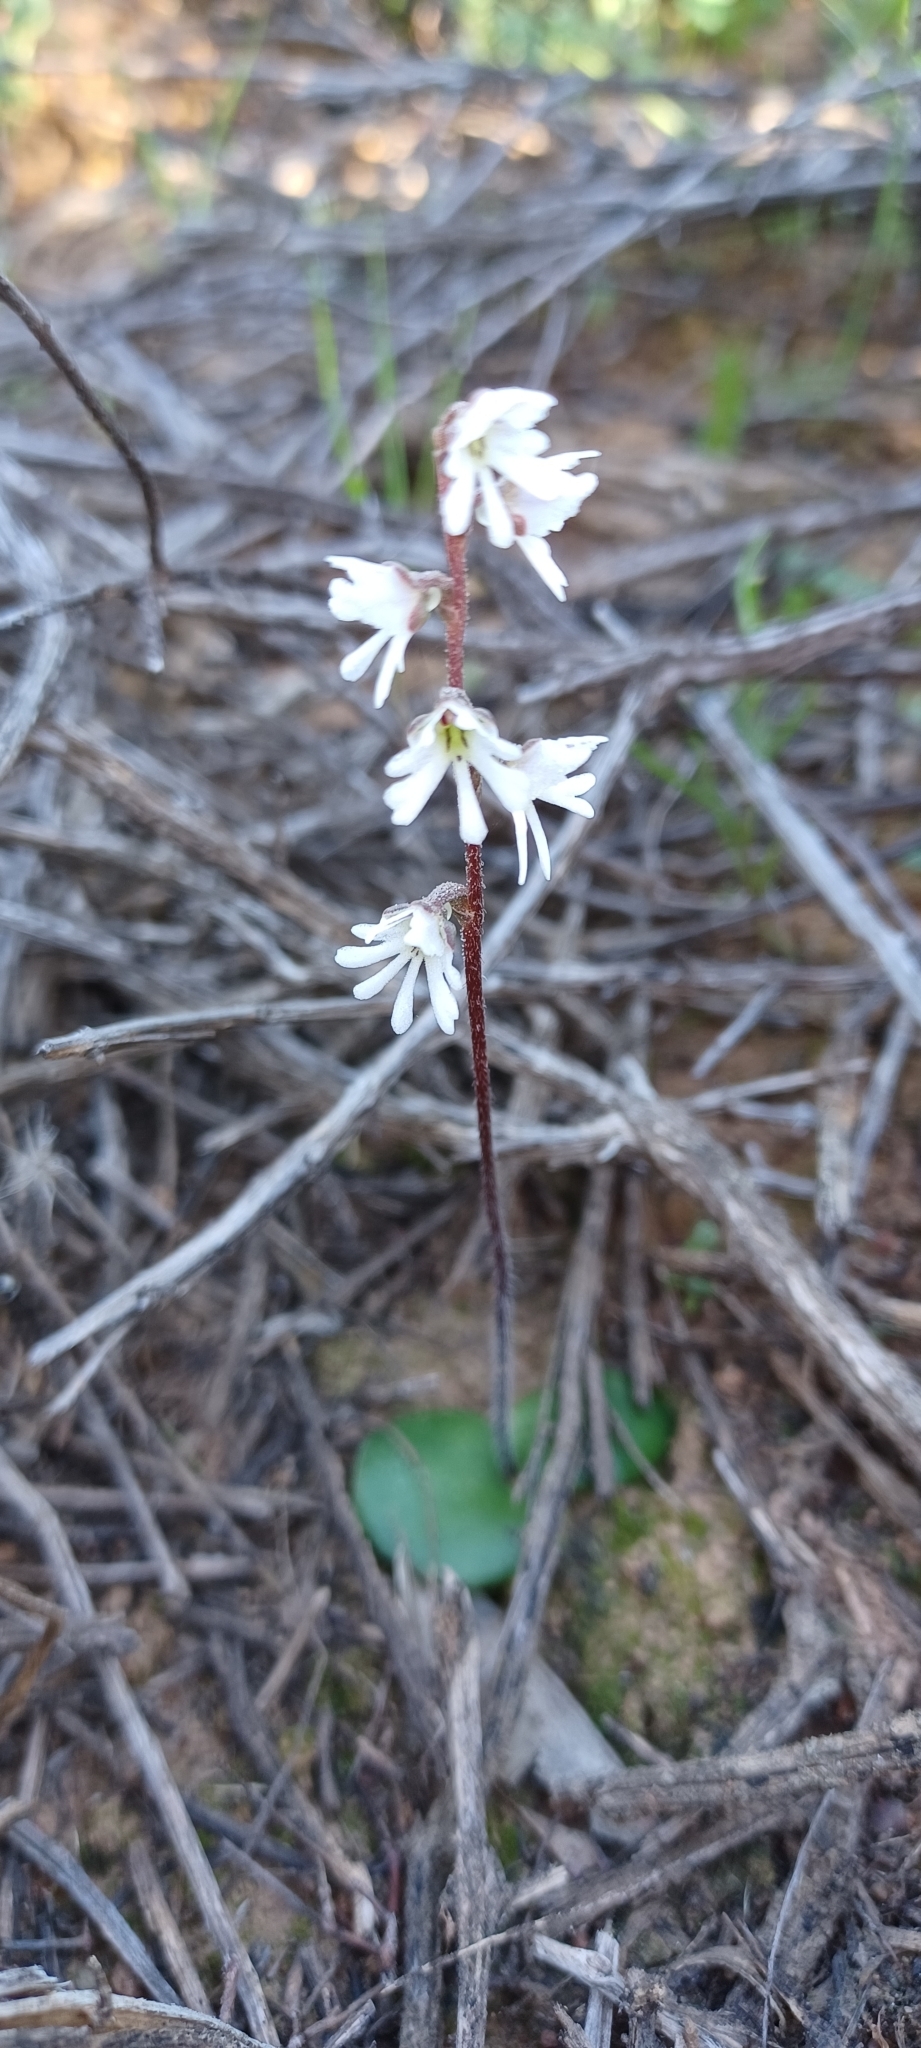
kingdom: Plantae
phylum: Tracheophyta
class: Liliopsida
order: Asparagales
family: Orchidaceae
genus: Holothrix
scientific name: Holothrix aspera
